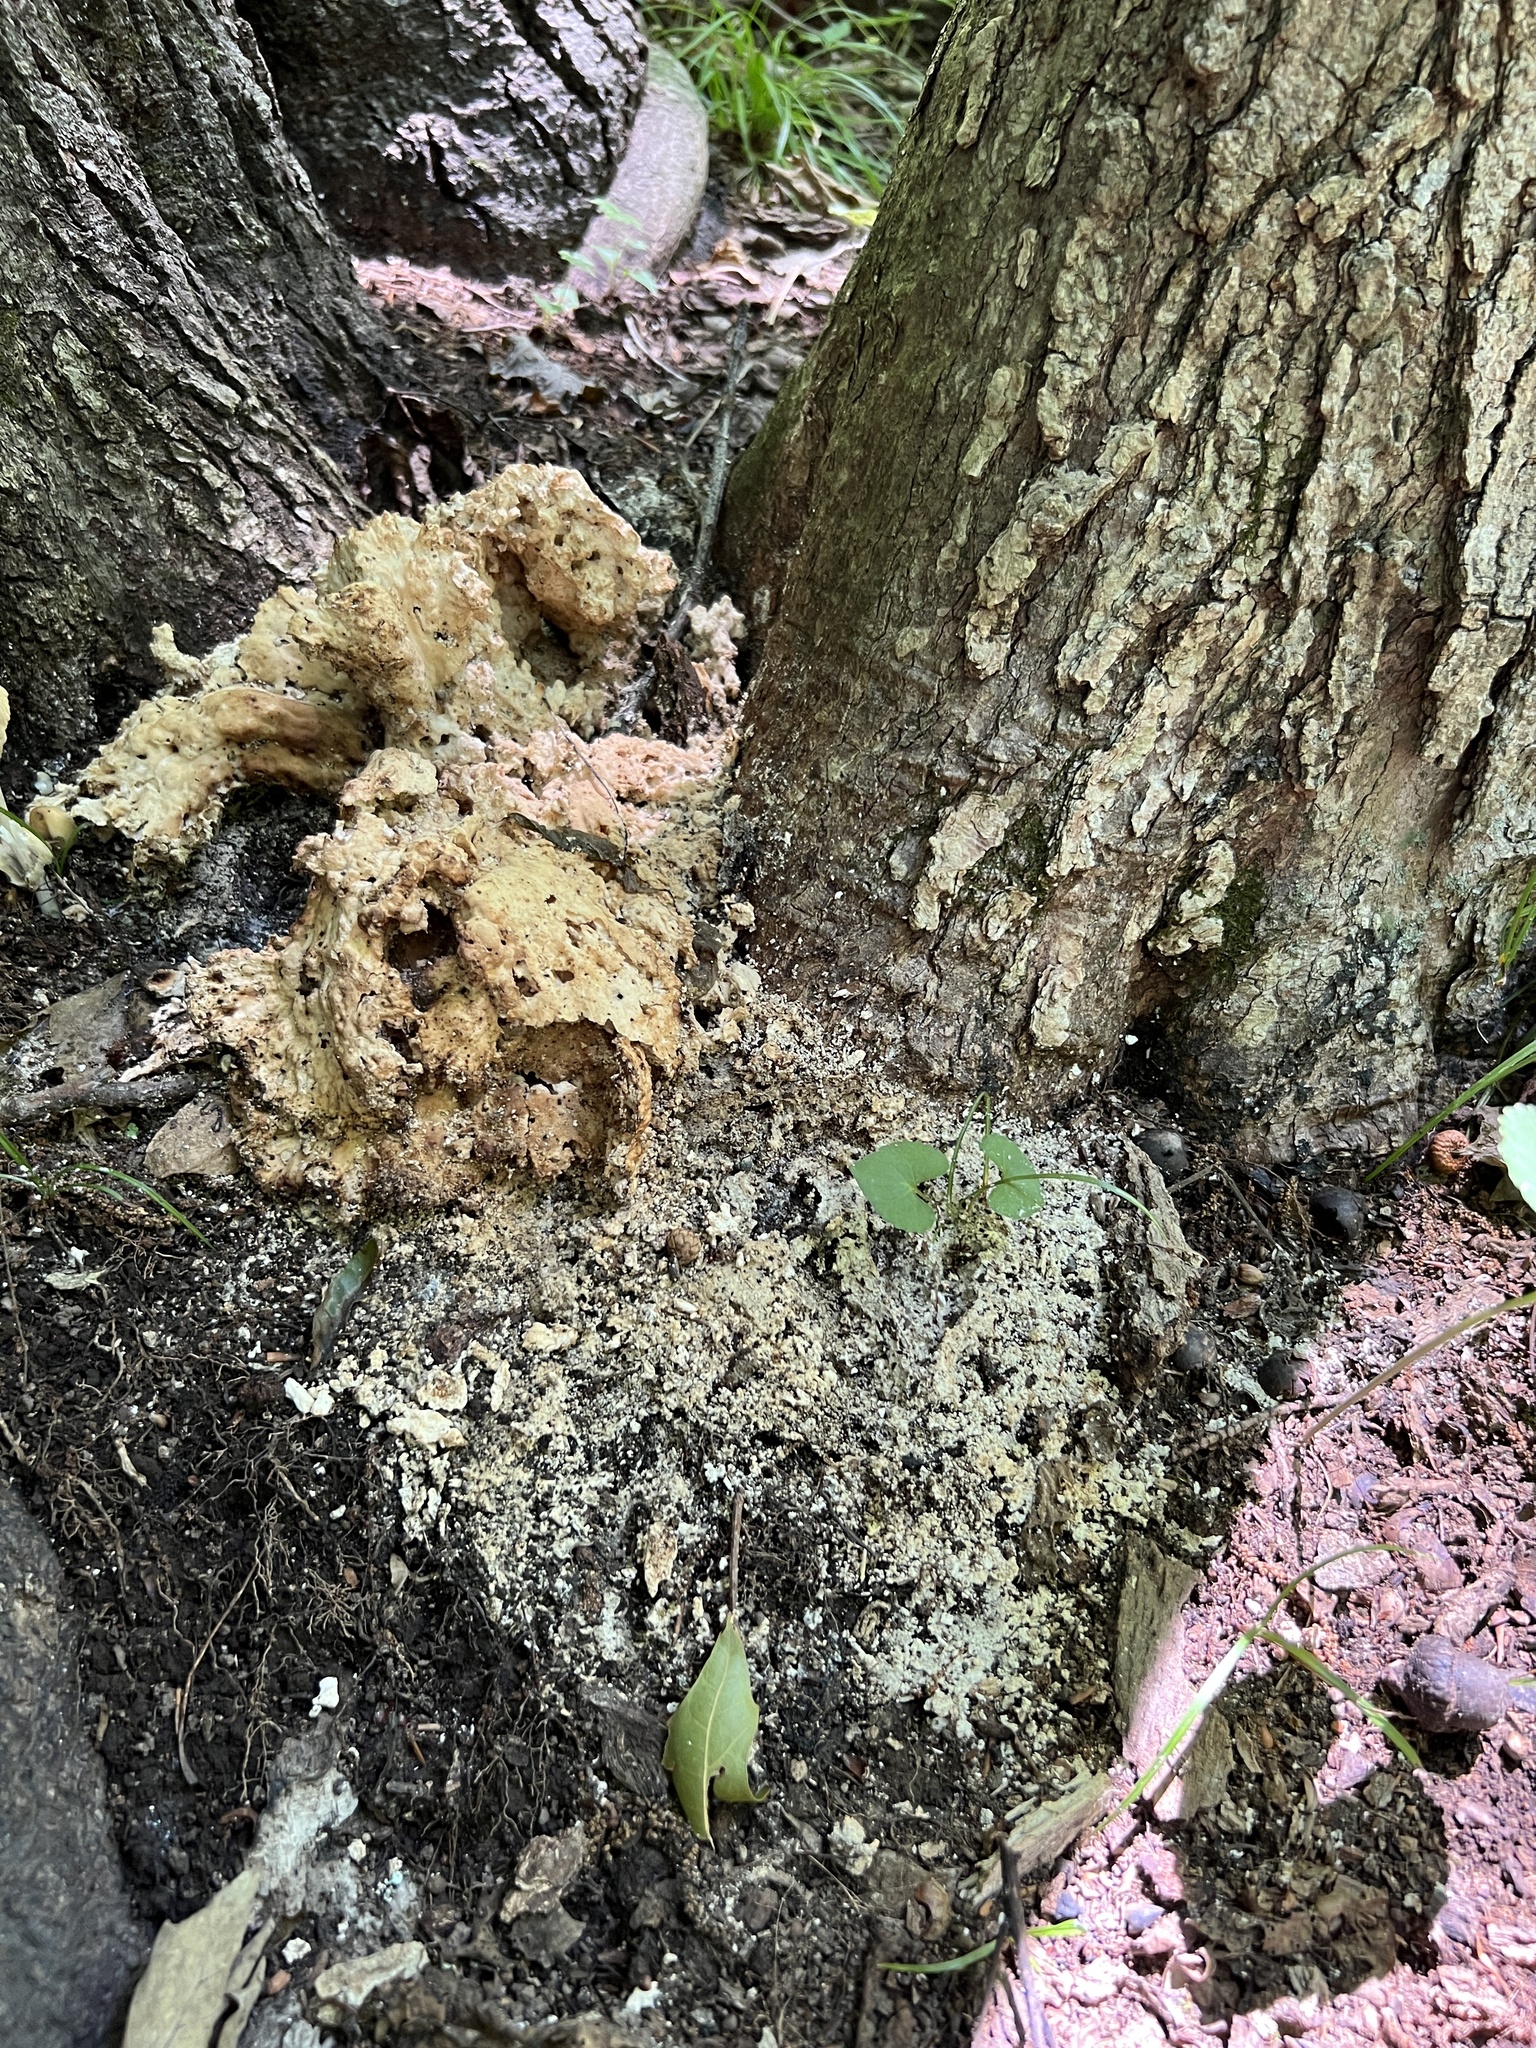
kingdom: Fungi
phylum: Basidiomycota
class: Agaricomycetes
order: Polyporales
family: Laetiporaceae
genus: Laetiporus
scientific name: Laetiporus sulphureus
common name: Chicken of the woods
